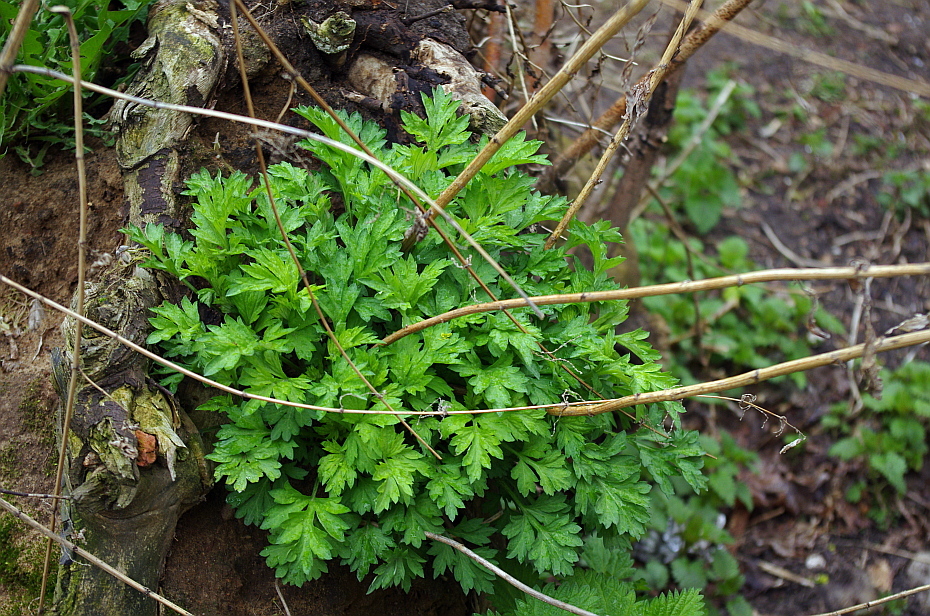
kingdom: Plantae
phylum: Tracheophyta
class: Magnoliopsida
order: Asterales
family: Asteraceae
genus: Artemisia
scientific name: Artemisia vulgaris
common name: Mugwort
